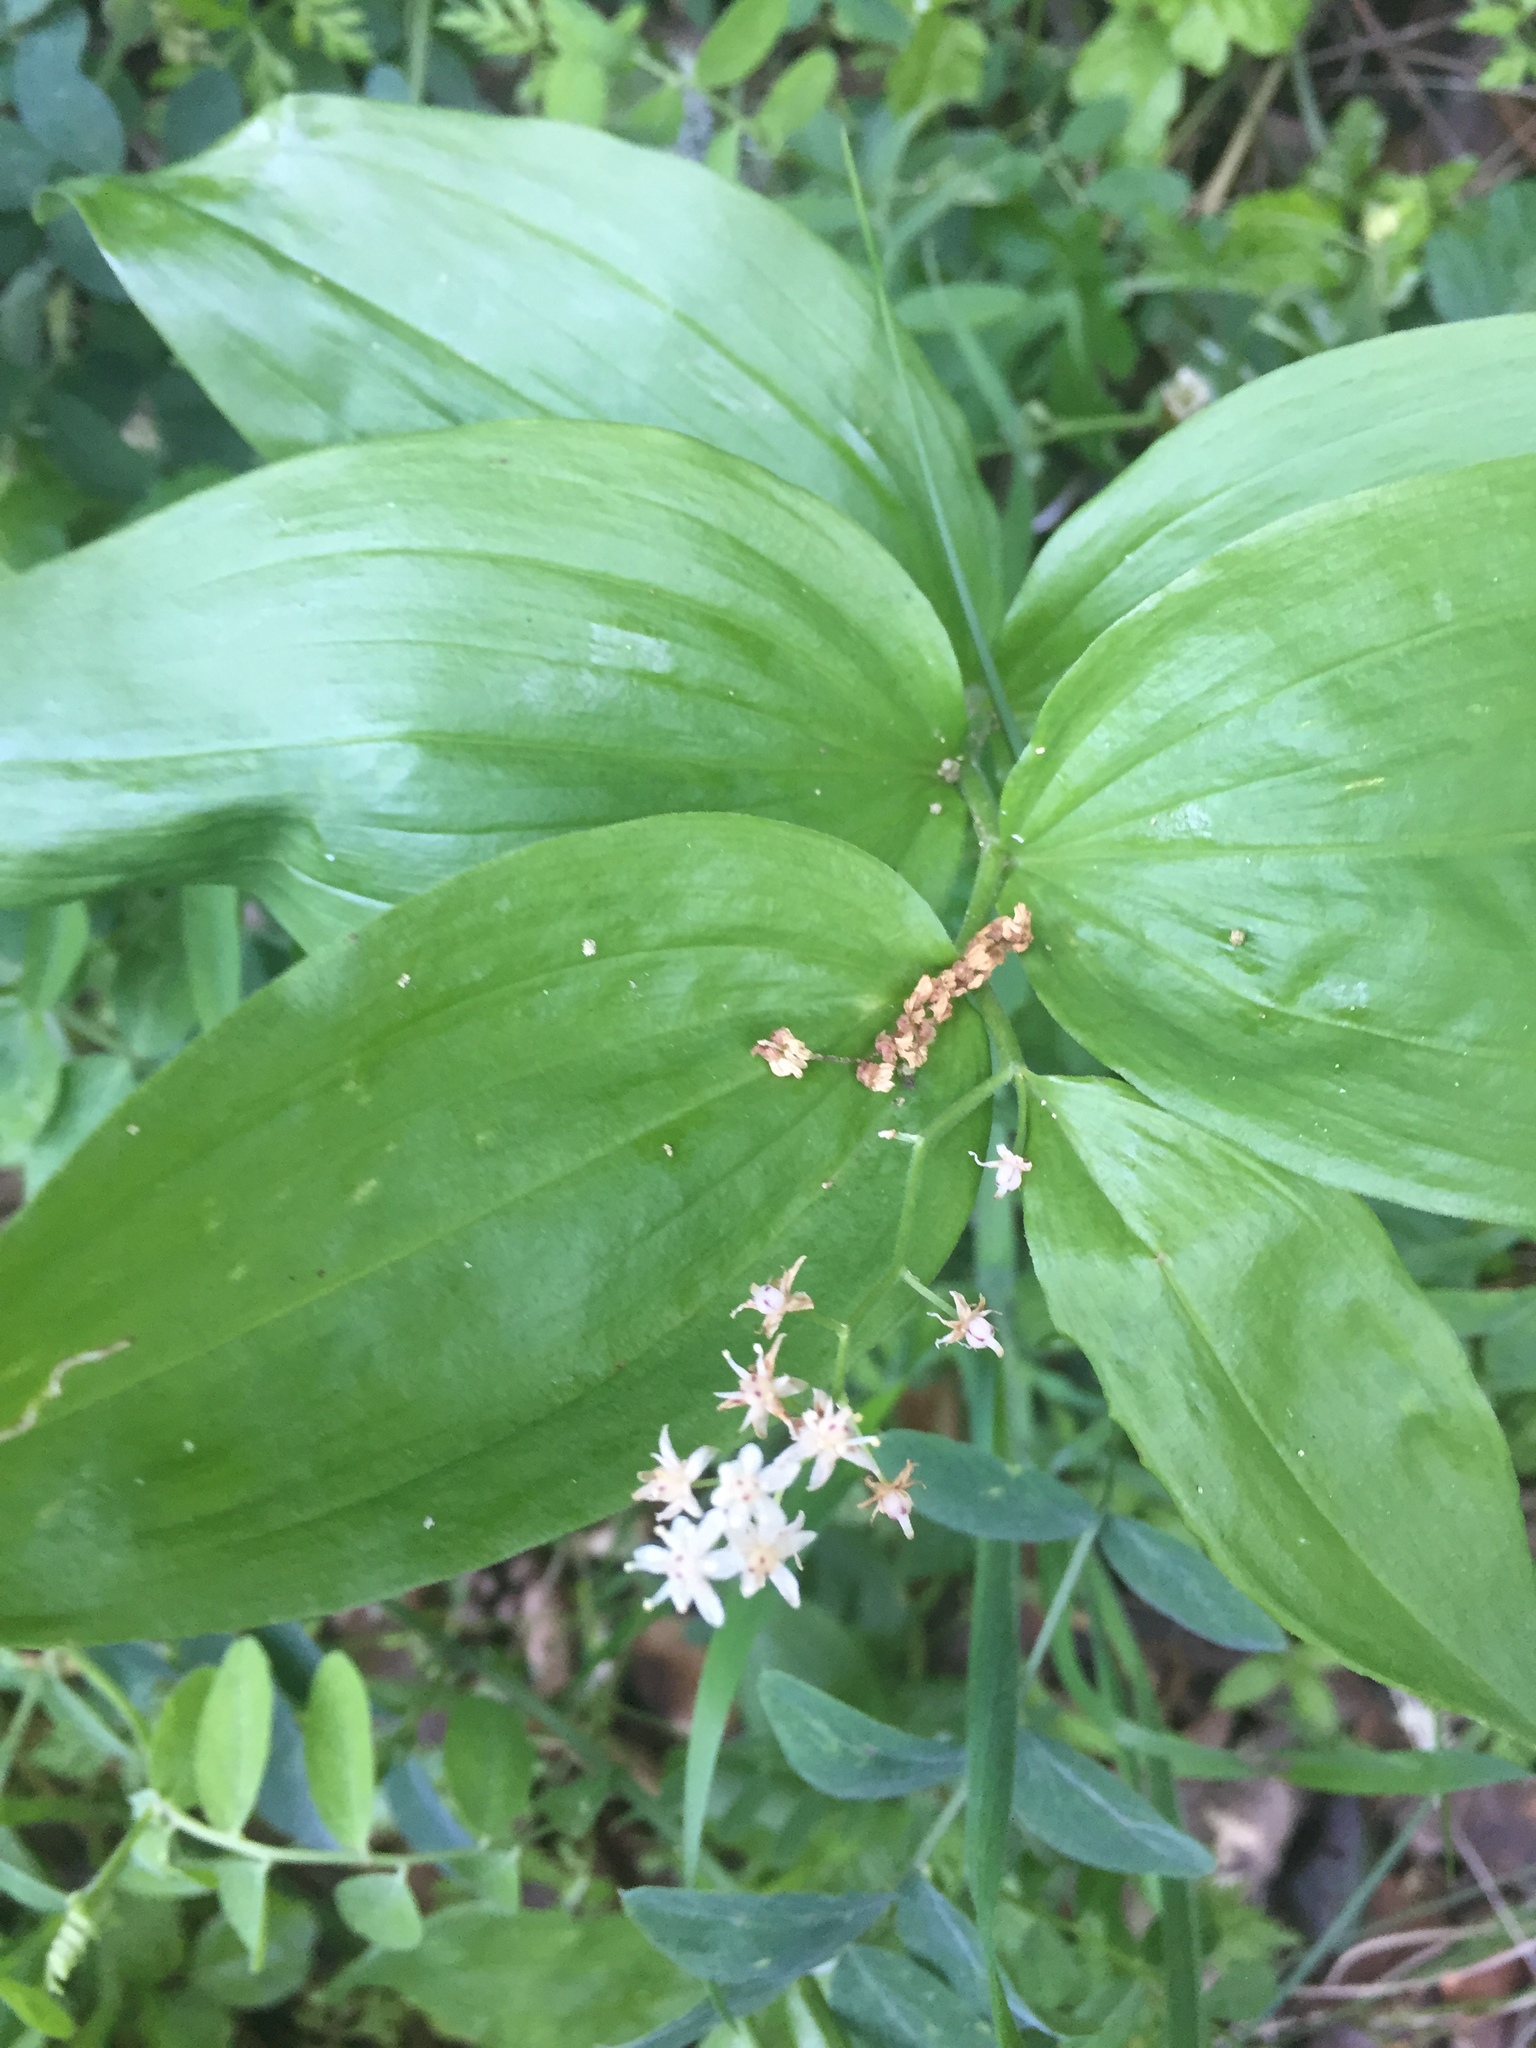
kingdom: Plantae
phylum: Tracheophyta
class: Liliopsida
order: Asparagales
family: Asparagaceae
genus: Maianthemum
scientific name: Maianthemum stellatum
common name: Little false solomon's seal
